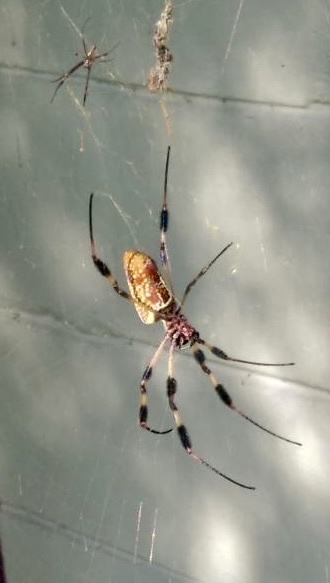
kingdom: Animalia
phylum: Arthropoda
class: Arachnida
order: Araneae
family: Araneidae
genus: Trichonephila
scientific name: Trichonephila clavipes
